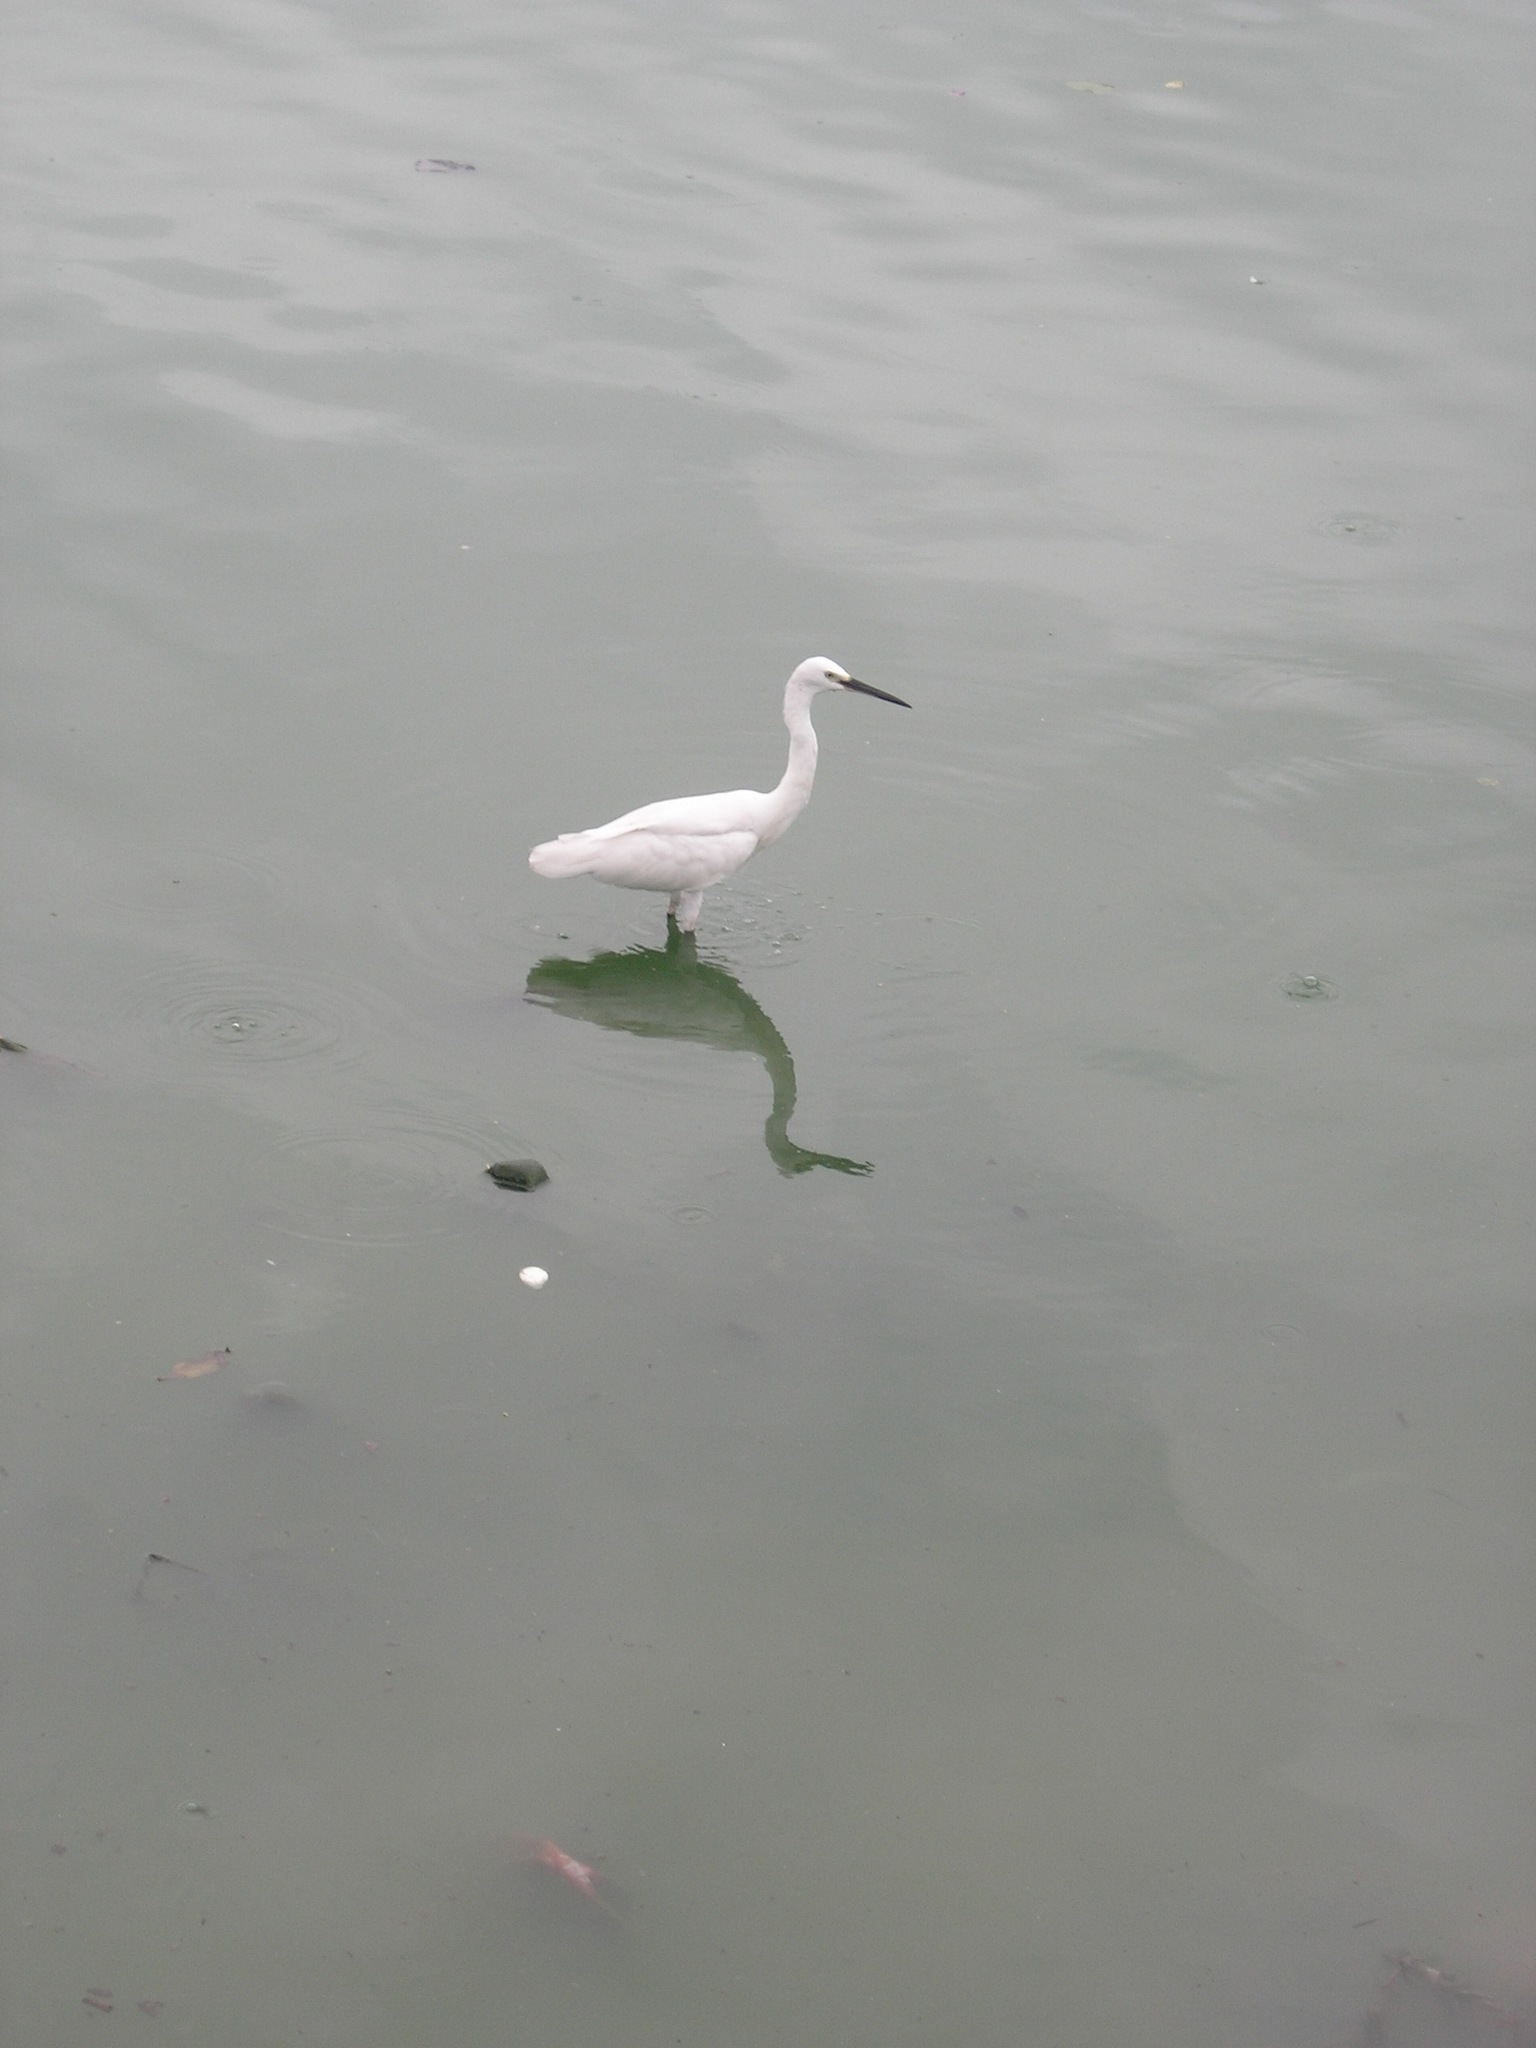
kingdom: Animalia
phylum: Chordata
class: Aves
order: Pelecaniformes
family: Ardeidae
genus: Egretta
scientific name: Egretta garzetta
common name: Little egret
